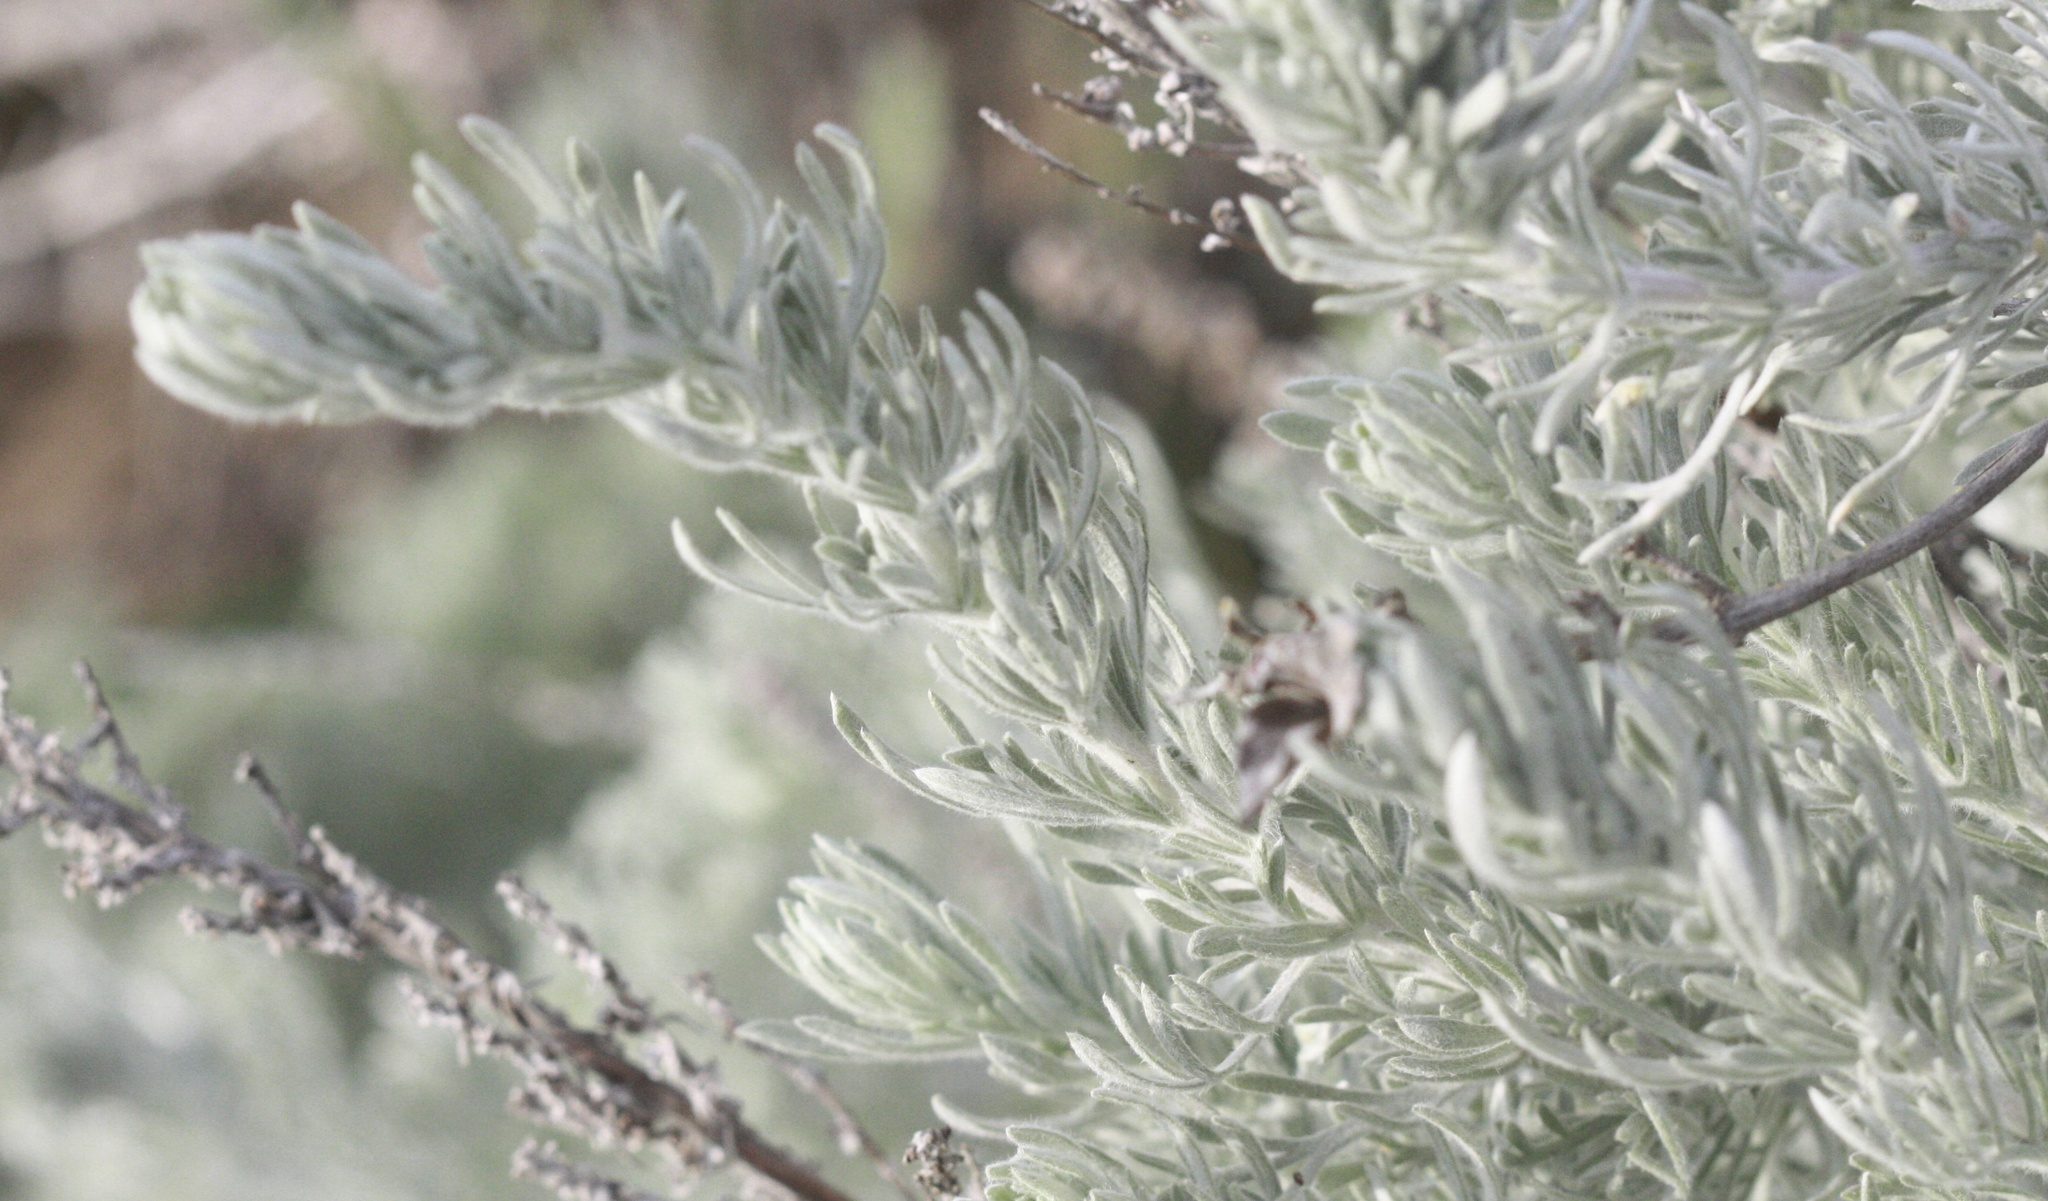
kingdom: Plantae
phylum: Tracheophyta
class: Magnoliopsida
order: Asterales
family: Asteraceae
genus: Artemisia
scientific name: Artemisia pycnocephala
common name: Coastal sagewort
